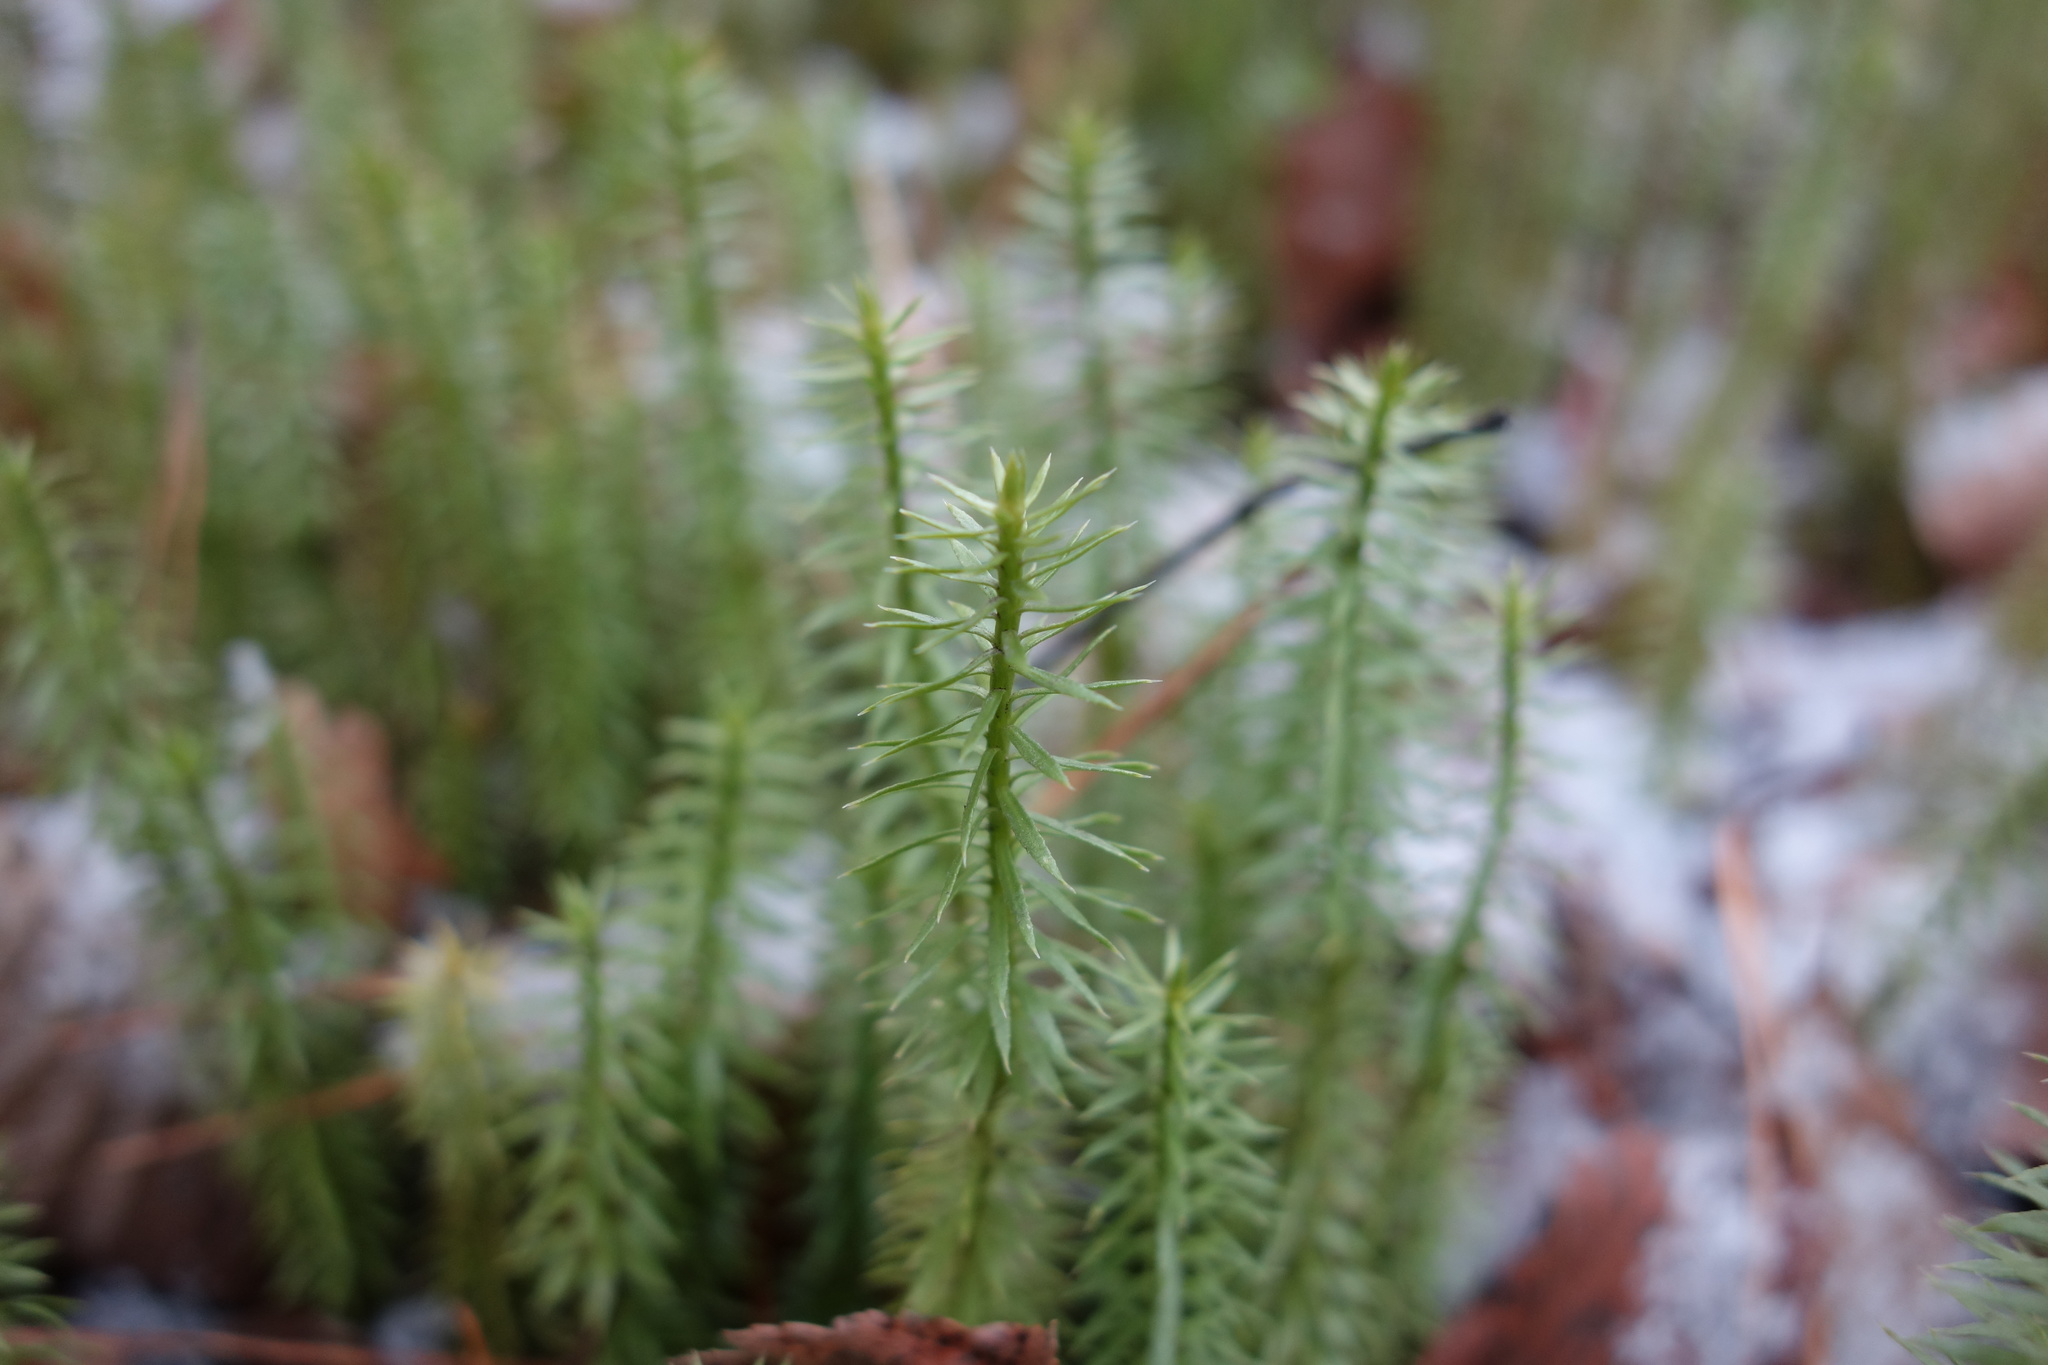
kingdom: Plantae
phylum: Tracheophyta
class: Lycopodiopsida
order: Lycopodiales
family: Lycopodiaceae
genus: Spinulum
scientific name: Spinulum annotinum
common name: Interrupted club-moss
